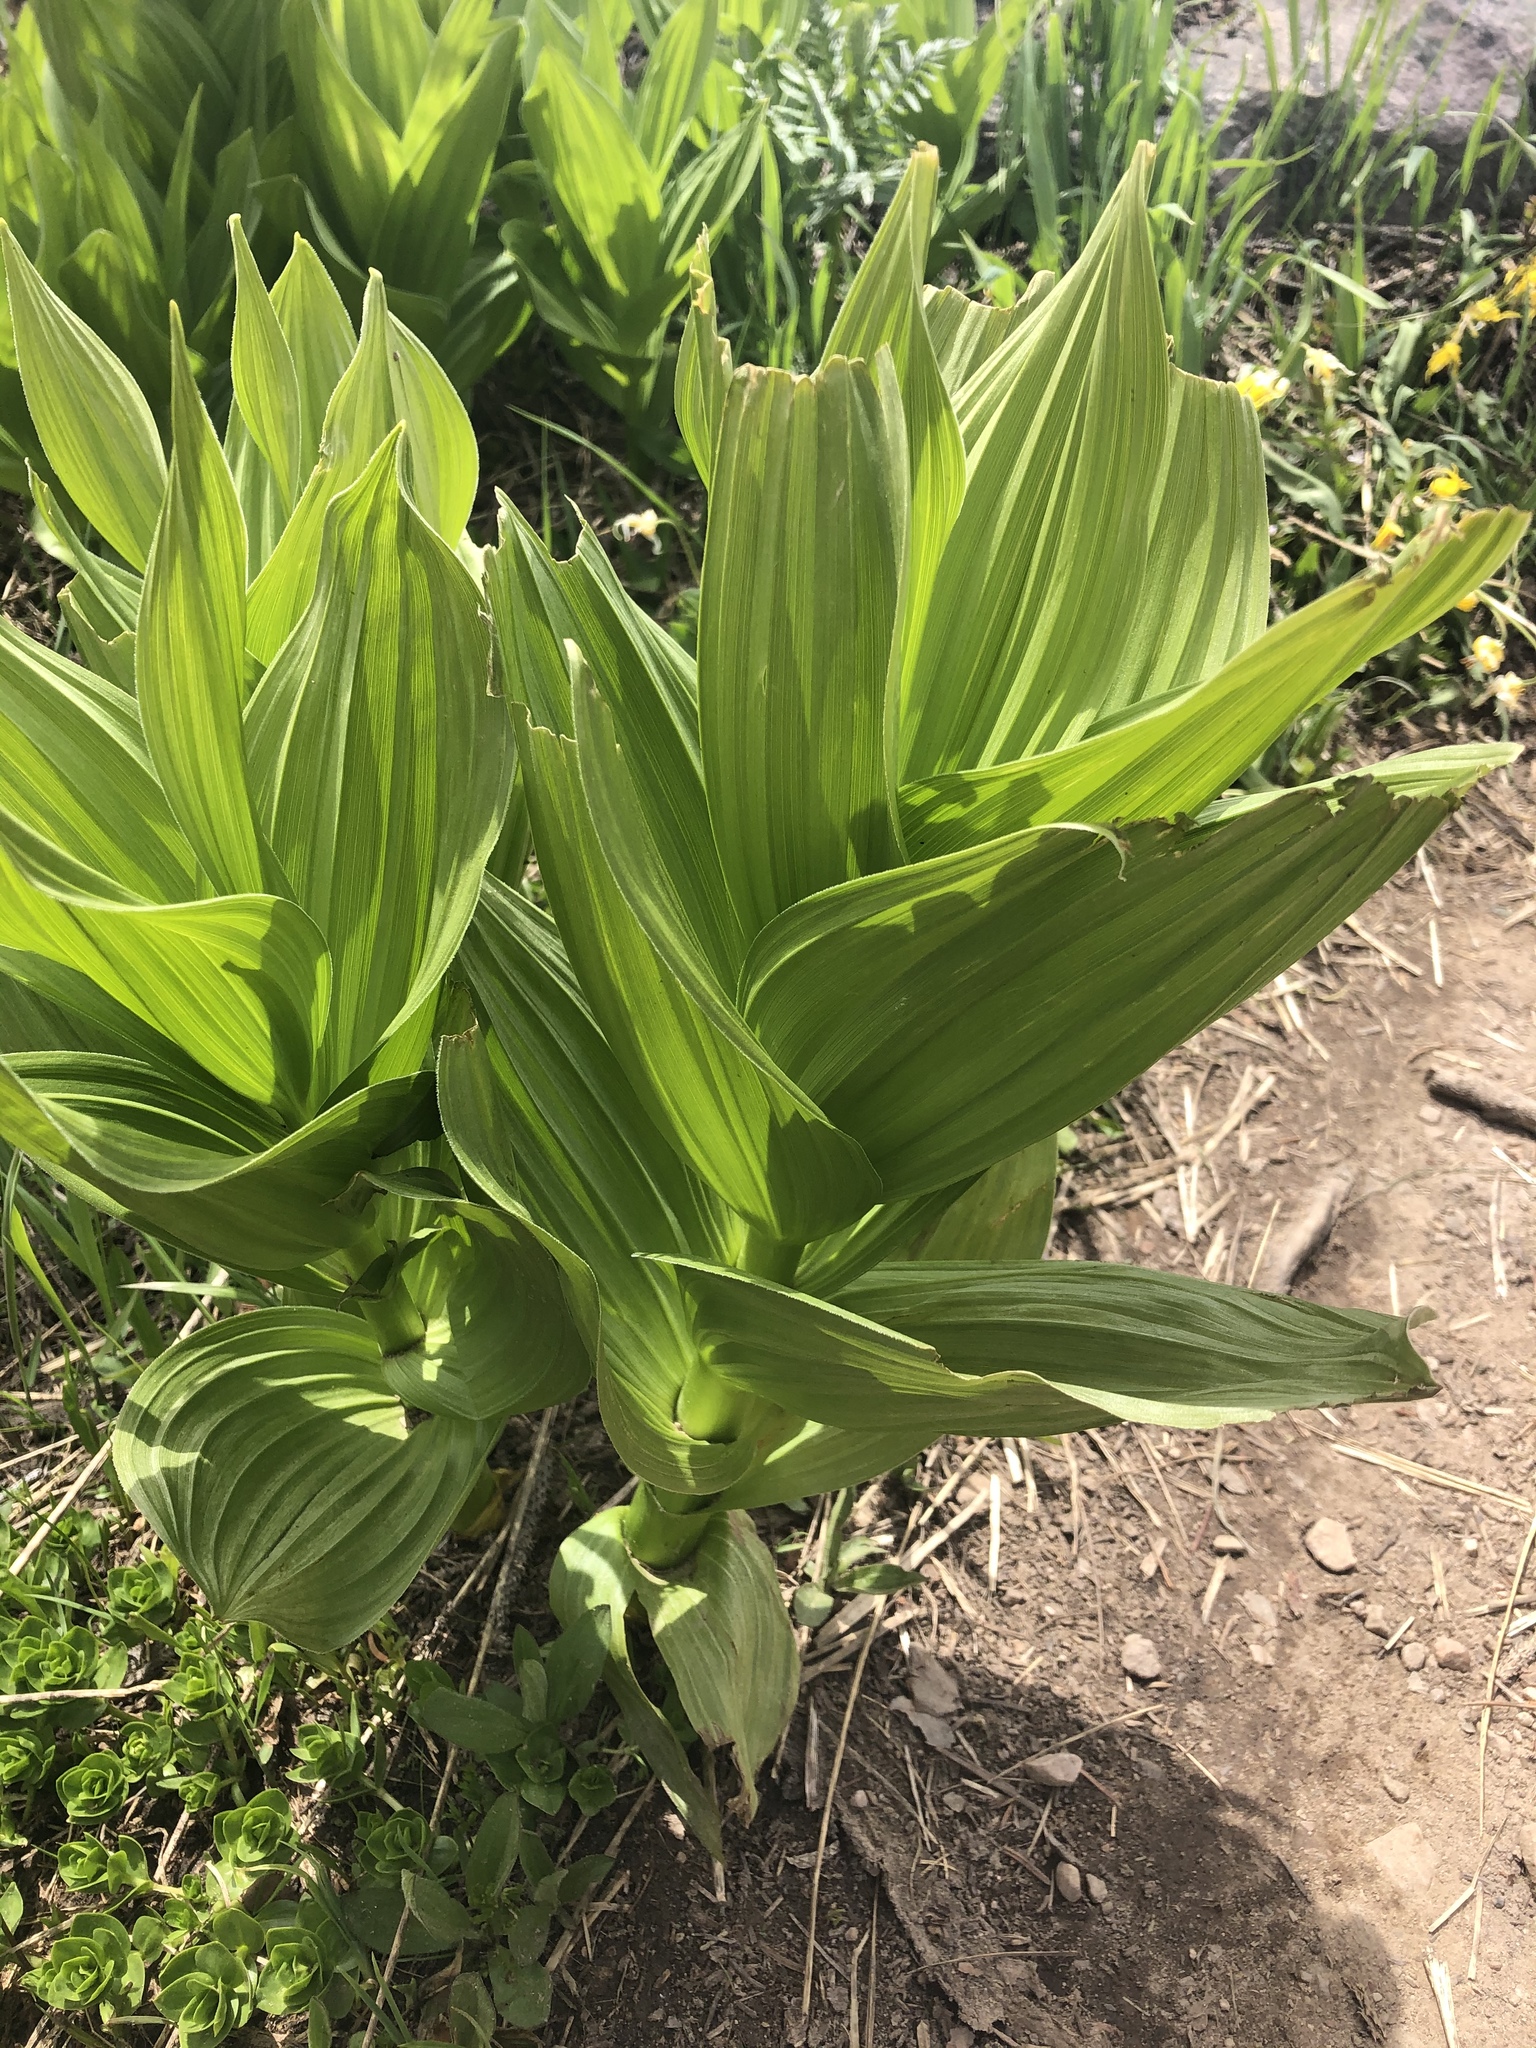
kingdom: Plantae
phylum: Tracheophyta
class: Liliopsida
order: Liliales
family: Melanthiaceae
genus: Veratrum
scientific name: Veratrum californicum
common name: California veratrum
